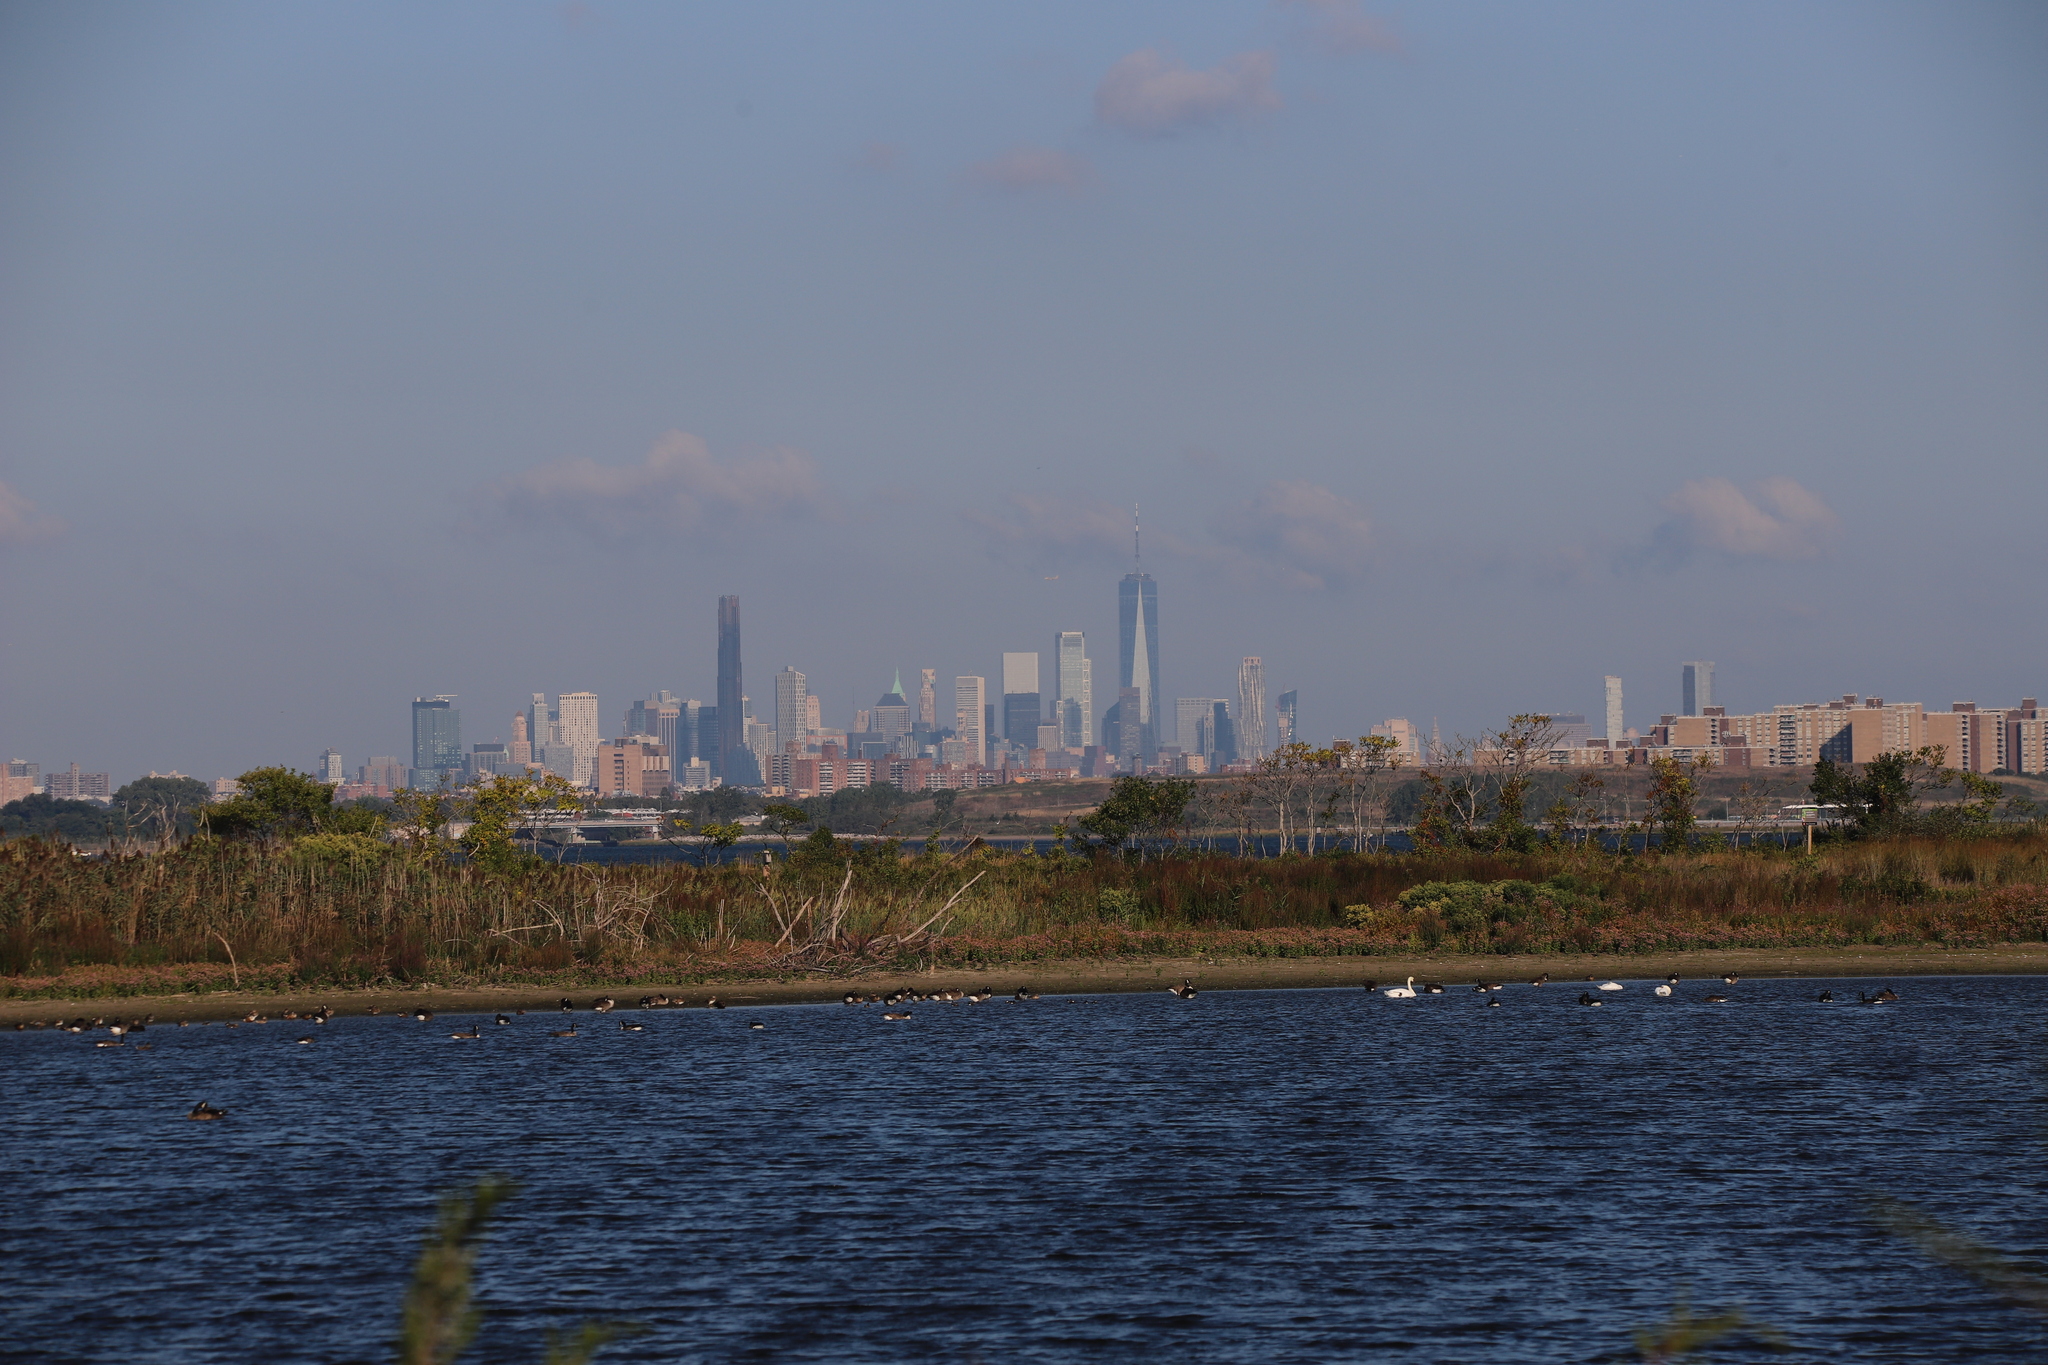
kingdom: Animalia
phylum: Chordata
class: Aves
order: Anseriformes
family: Anatidae
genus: Cygnus
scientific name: Cygnus olor
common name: Mute swan
